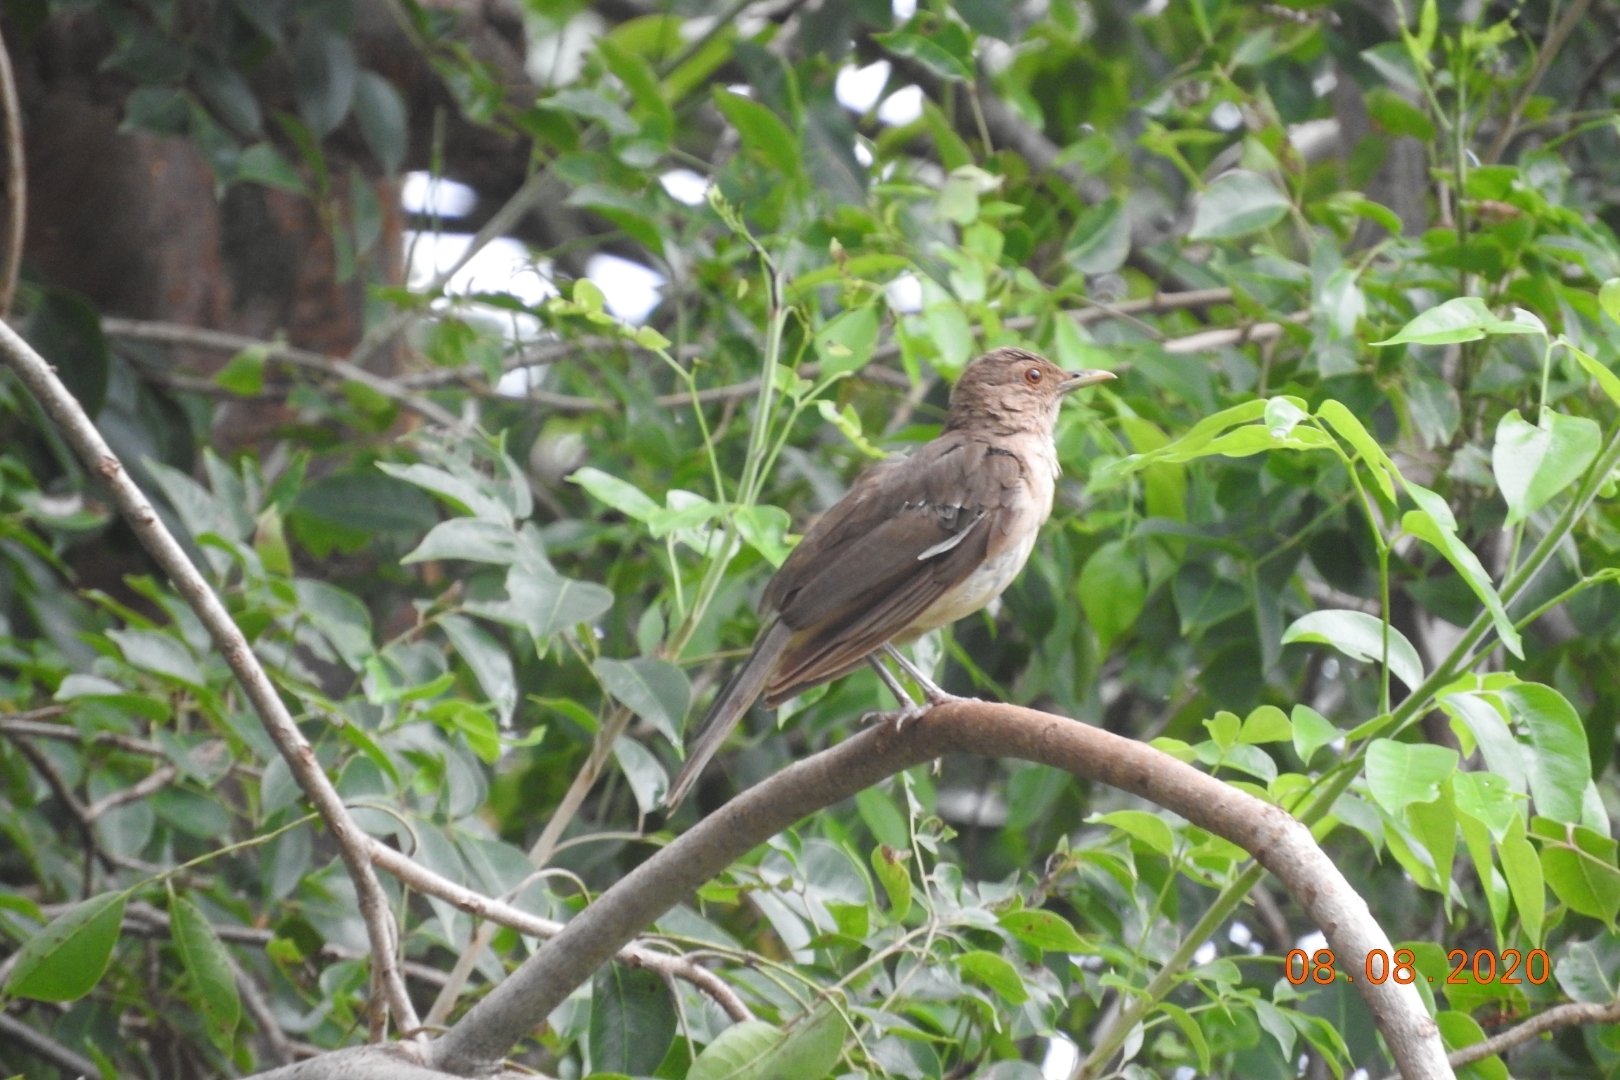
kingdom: Animalia
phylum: Chordata
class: Aves
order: Passeriformes
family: Turdidae
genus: Turdus
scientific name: Turdus grayi
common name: Clay-colored thrush
